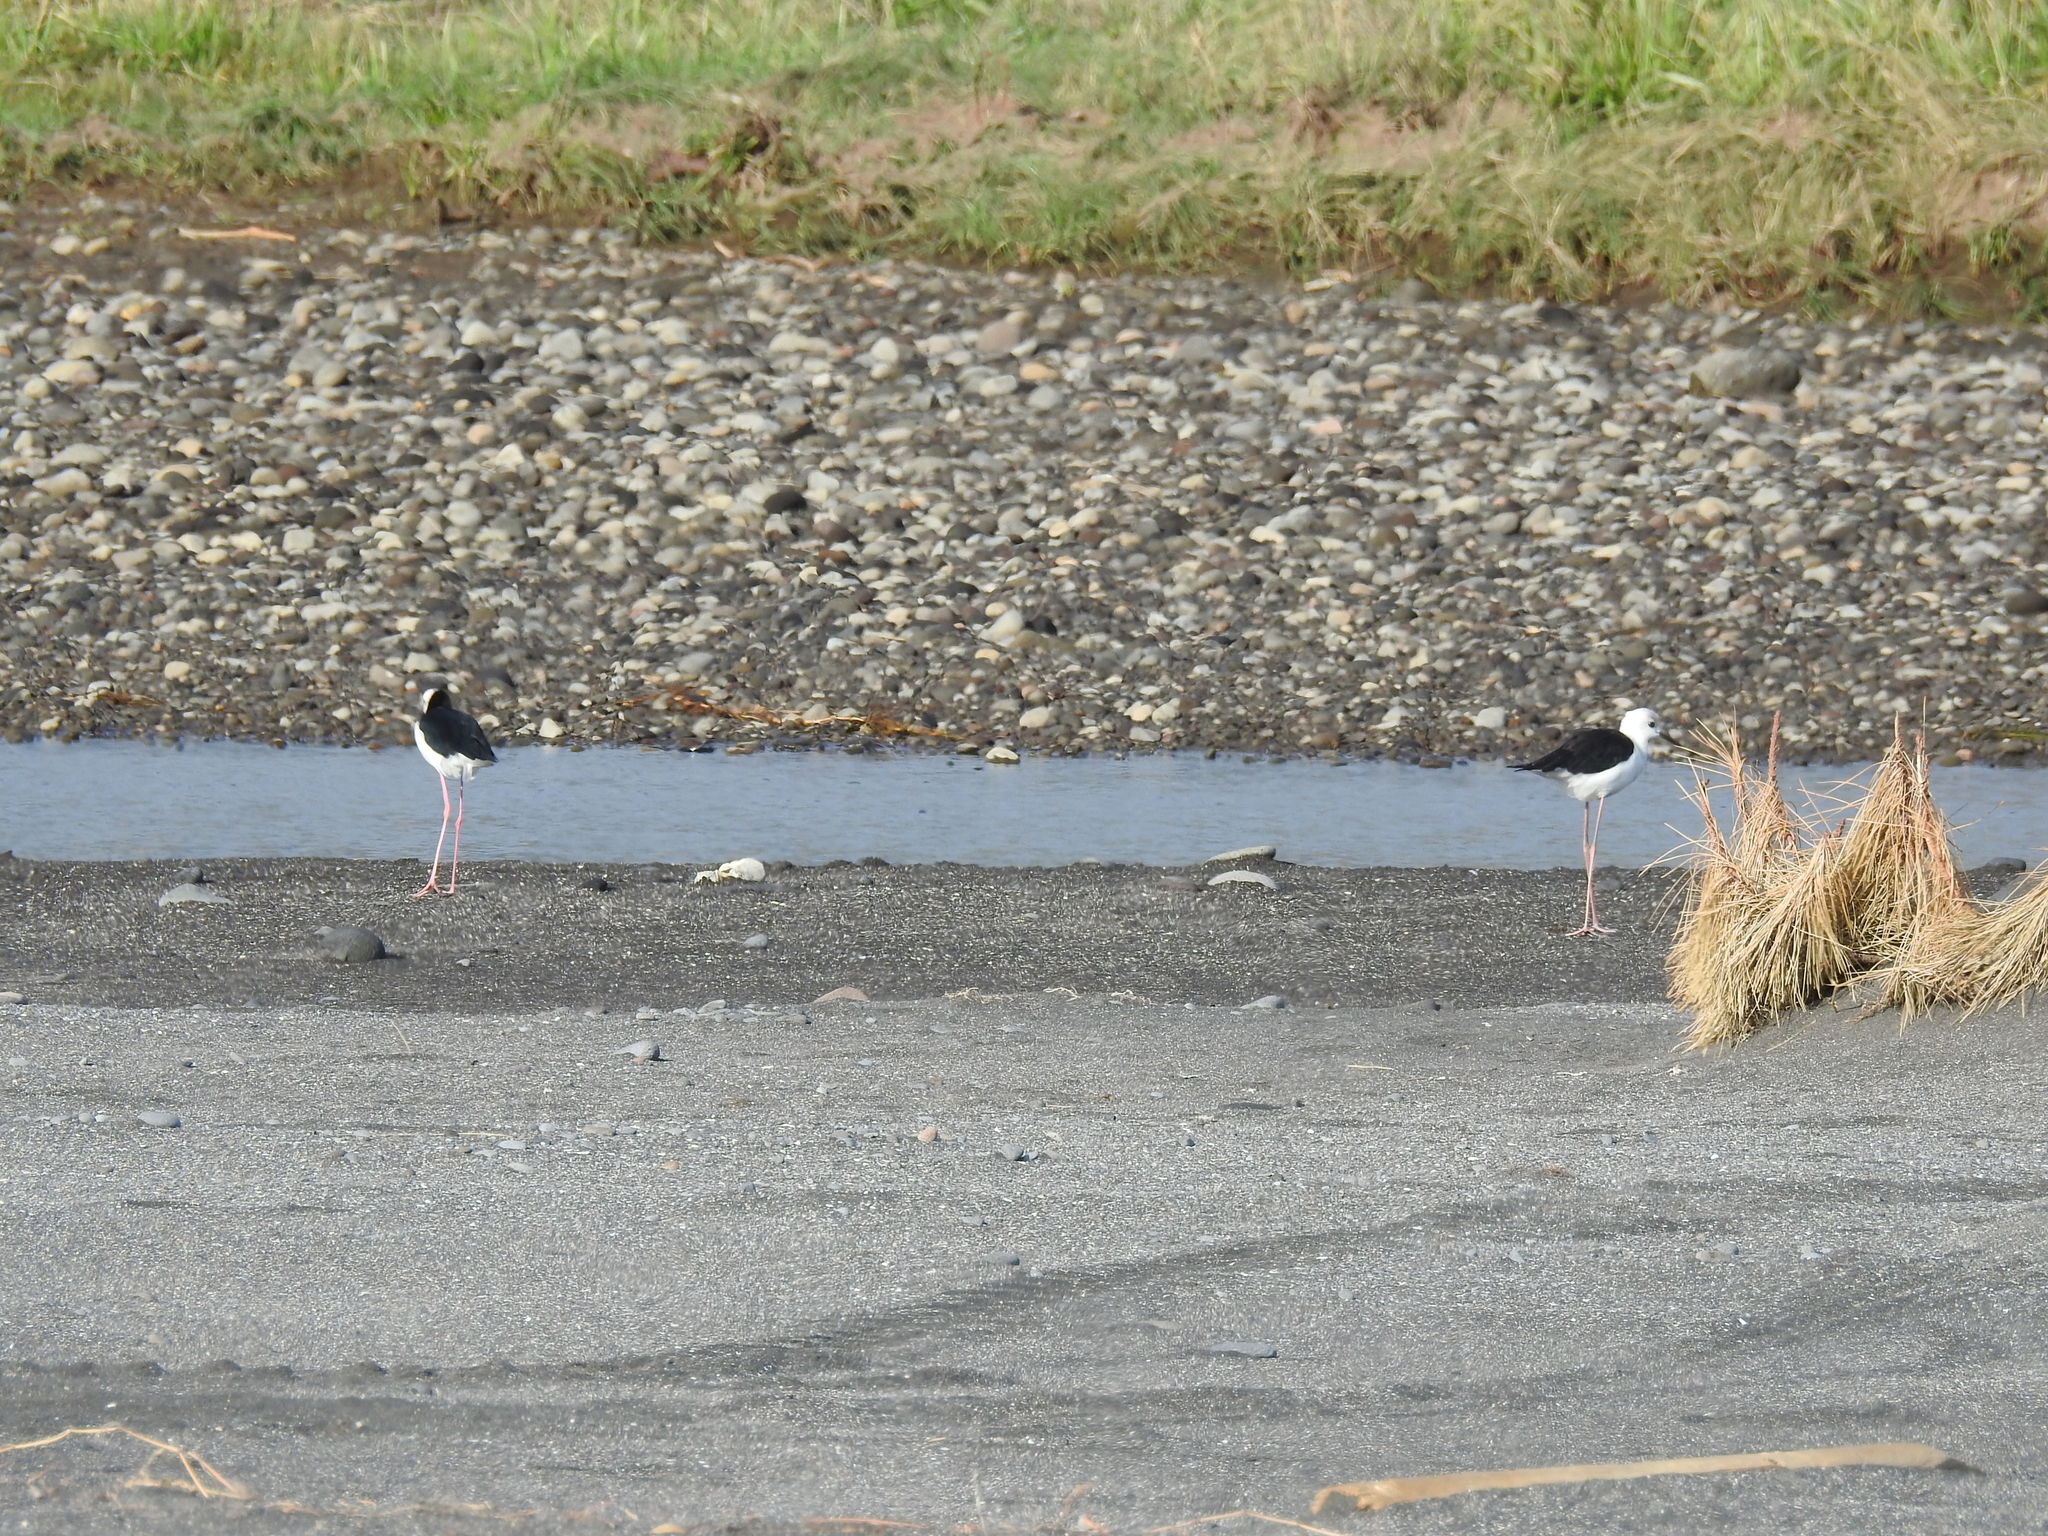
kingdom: Animalia
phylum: Chordata
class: Aves
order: Charadriiformes
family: Recurvirostridae
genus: Himantopus
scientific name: Himantopus leucocephalus
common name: White-headed stilt
